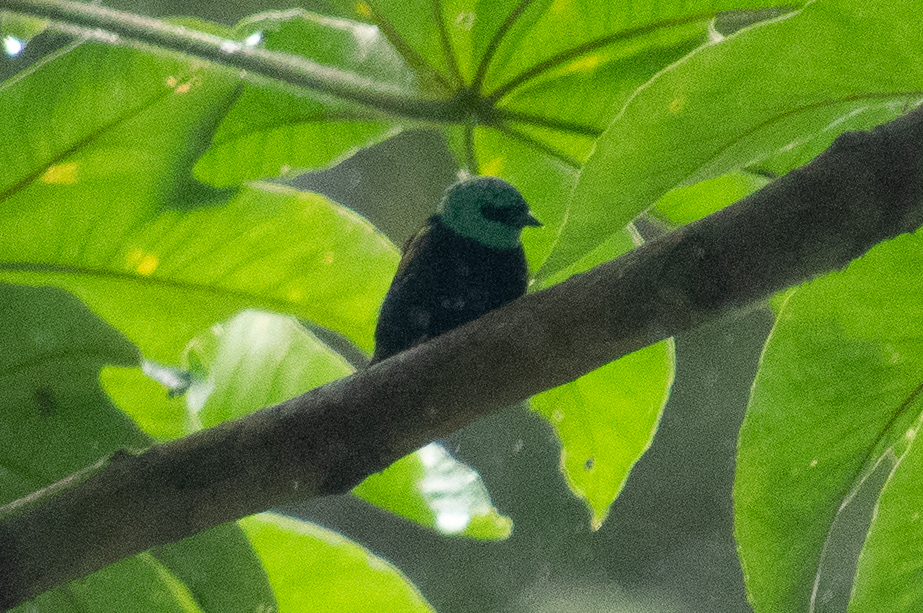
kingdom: Animalia
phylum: Chordata
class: Aves
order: Passeriformes
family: Thraupidae
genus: Stilpnia
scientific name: Stilpnia cyanicollis
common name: Blue-necked tanager
